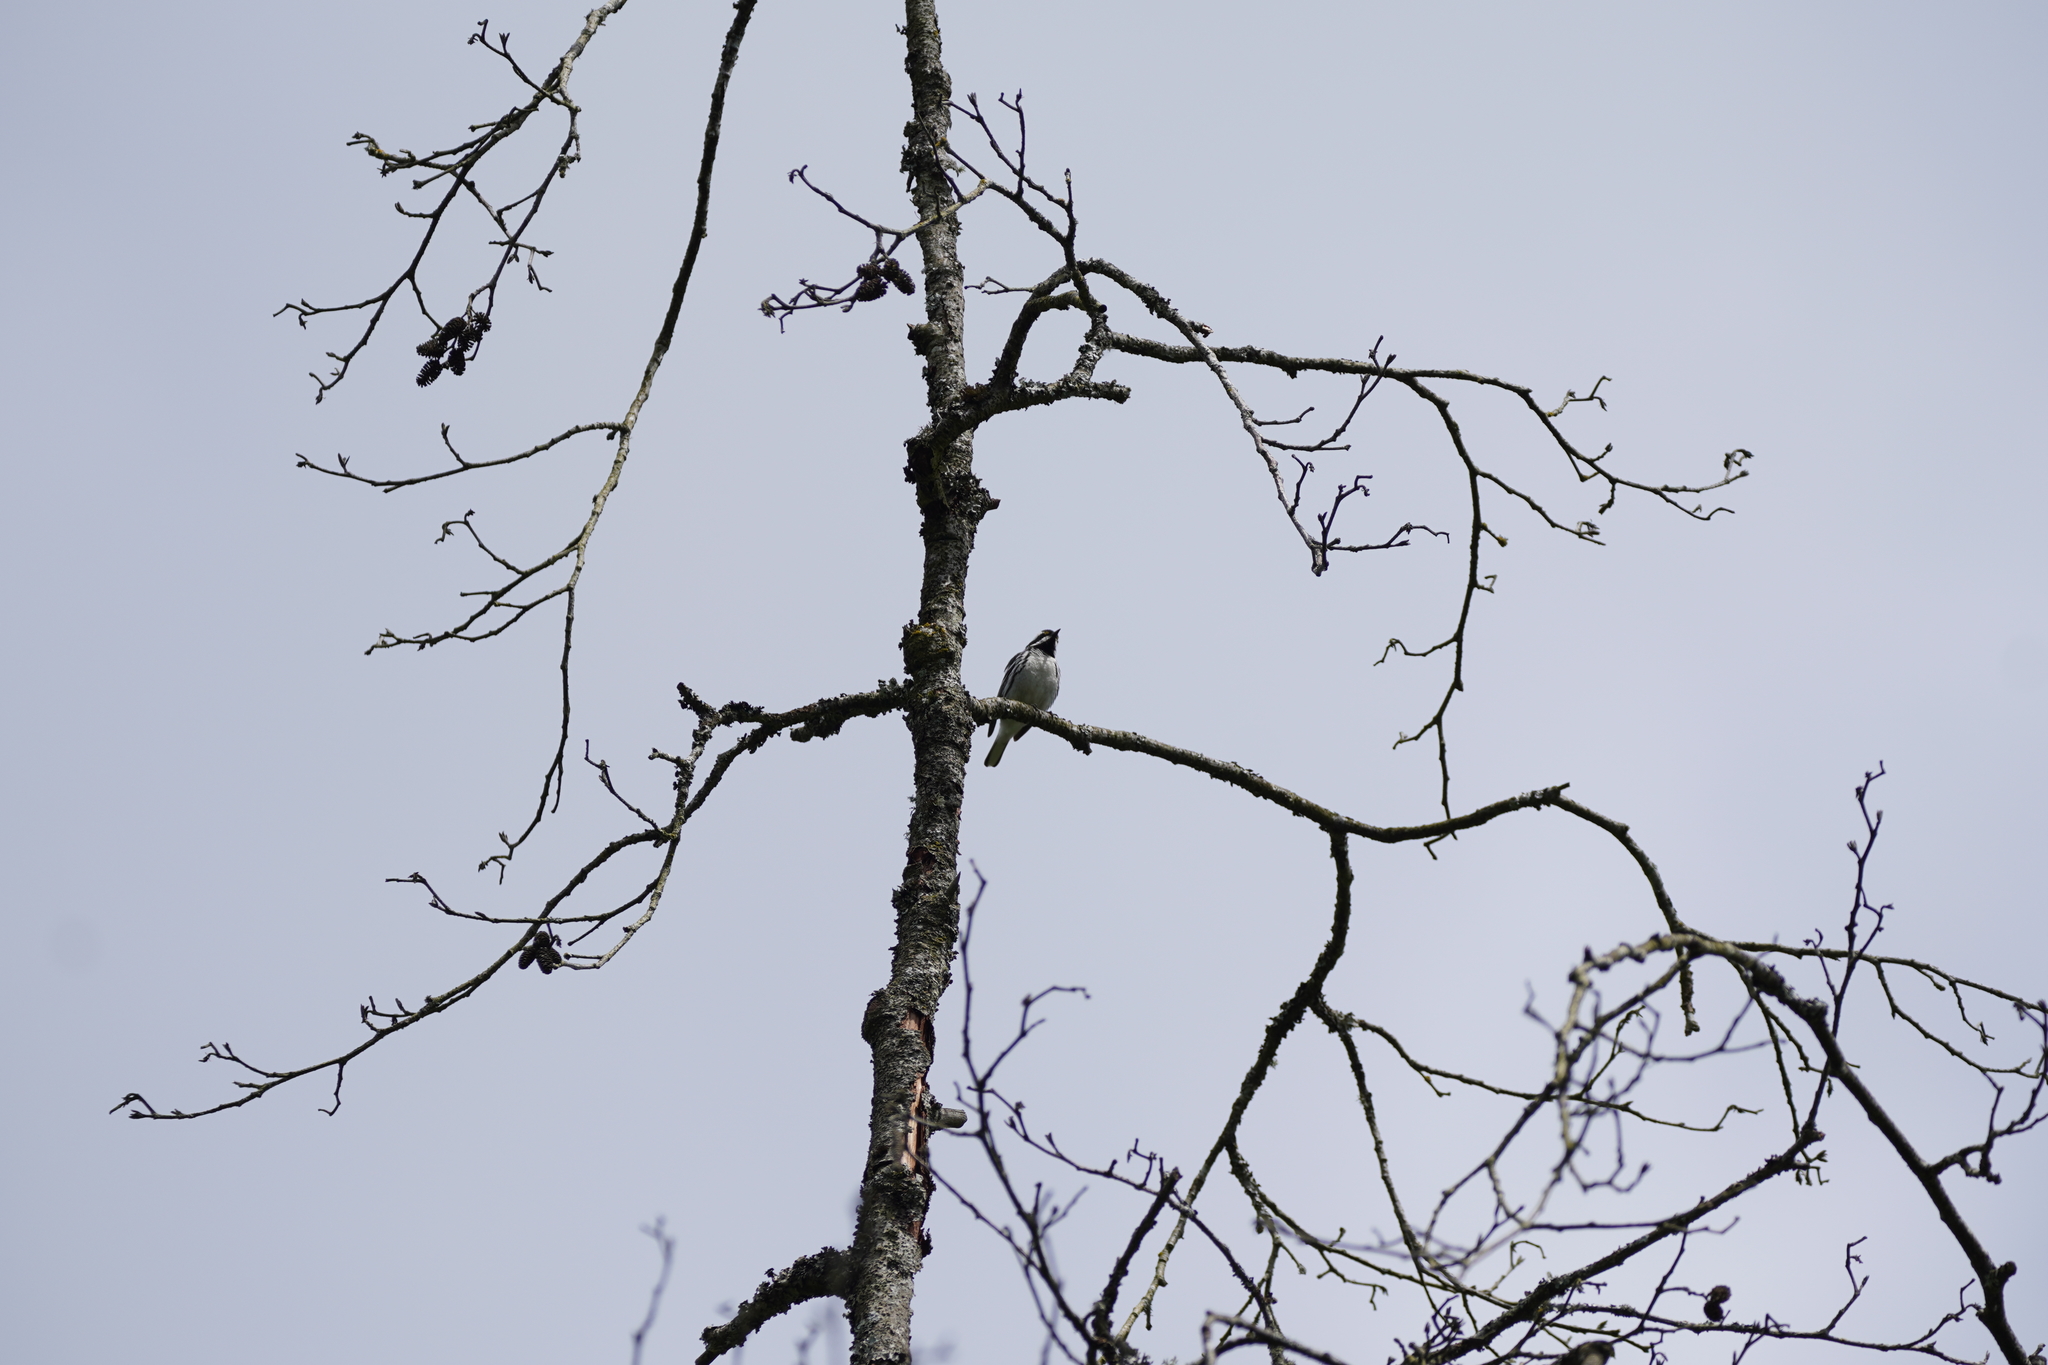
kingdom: Animalia
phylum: Chordata
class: Aves
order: Passeriformes
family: Parulidae
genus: Setophaga
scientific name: Setophaga nigrescens
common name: Black-throated gray warbler
